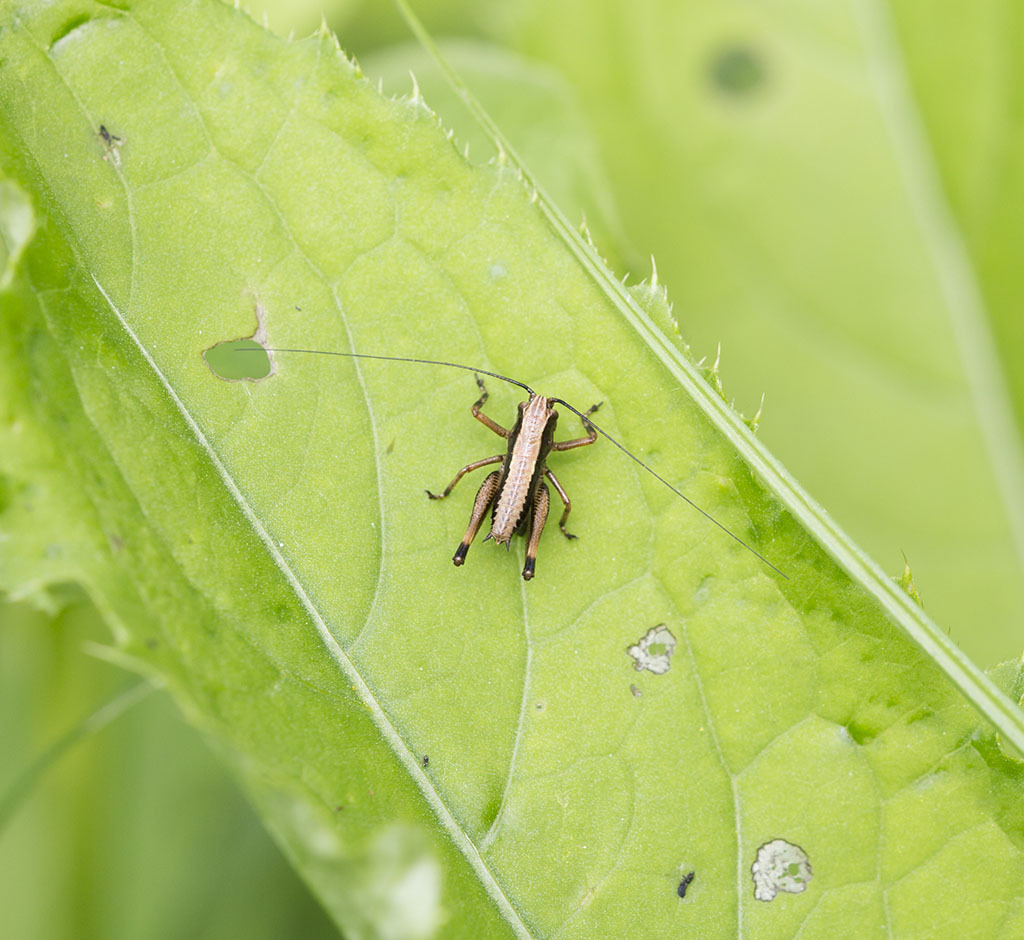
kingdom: Animalia
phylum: Arthropoda
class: Insecta
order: Orthoptera
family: Tettigoniidae
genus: Pholidoptera
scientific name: Pholidoptera griseoaptera
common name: Dark bush-cricket
